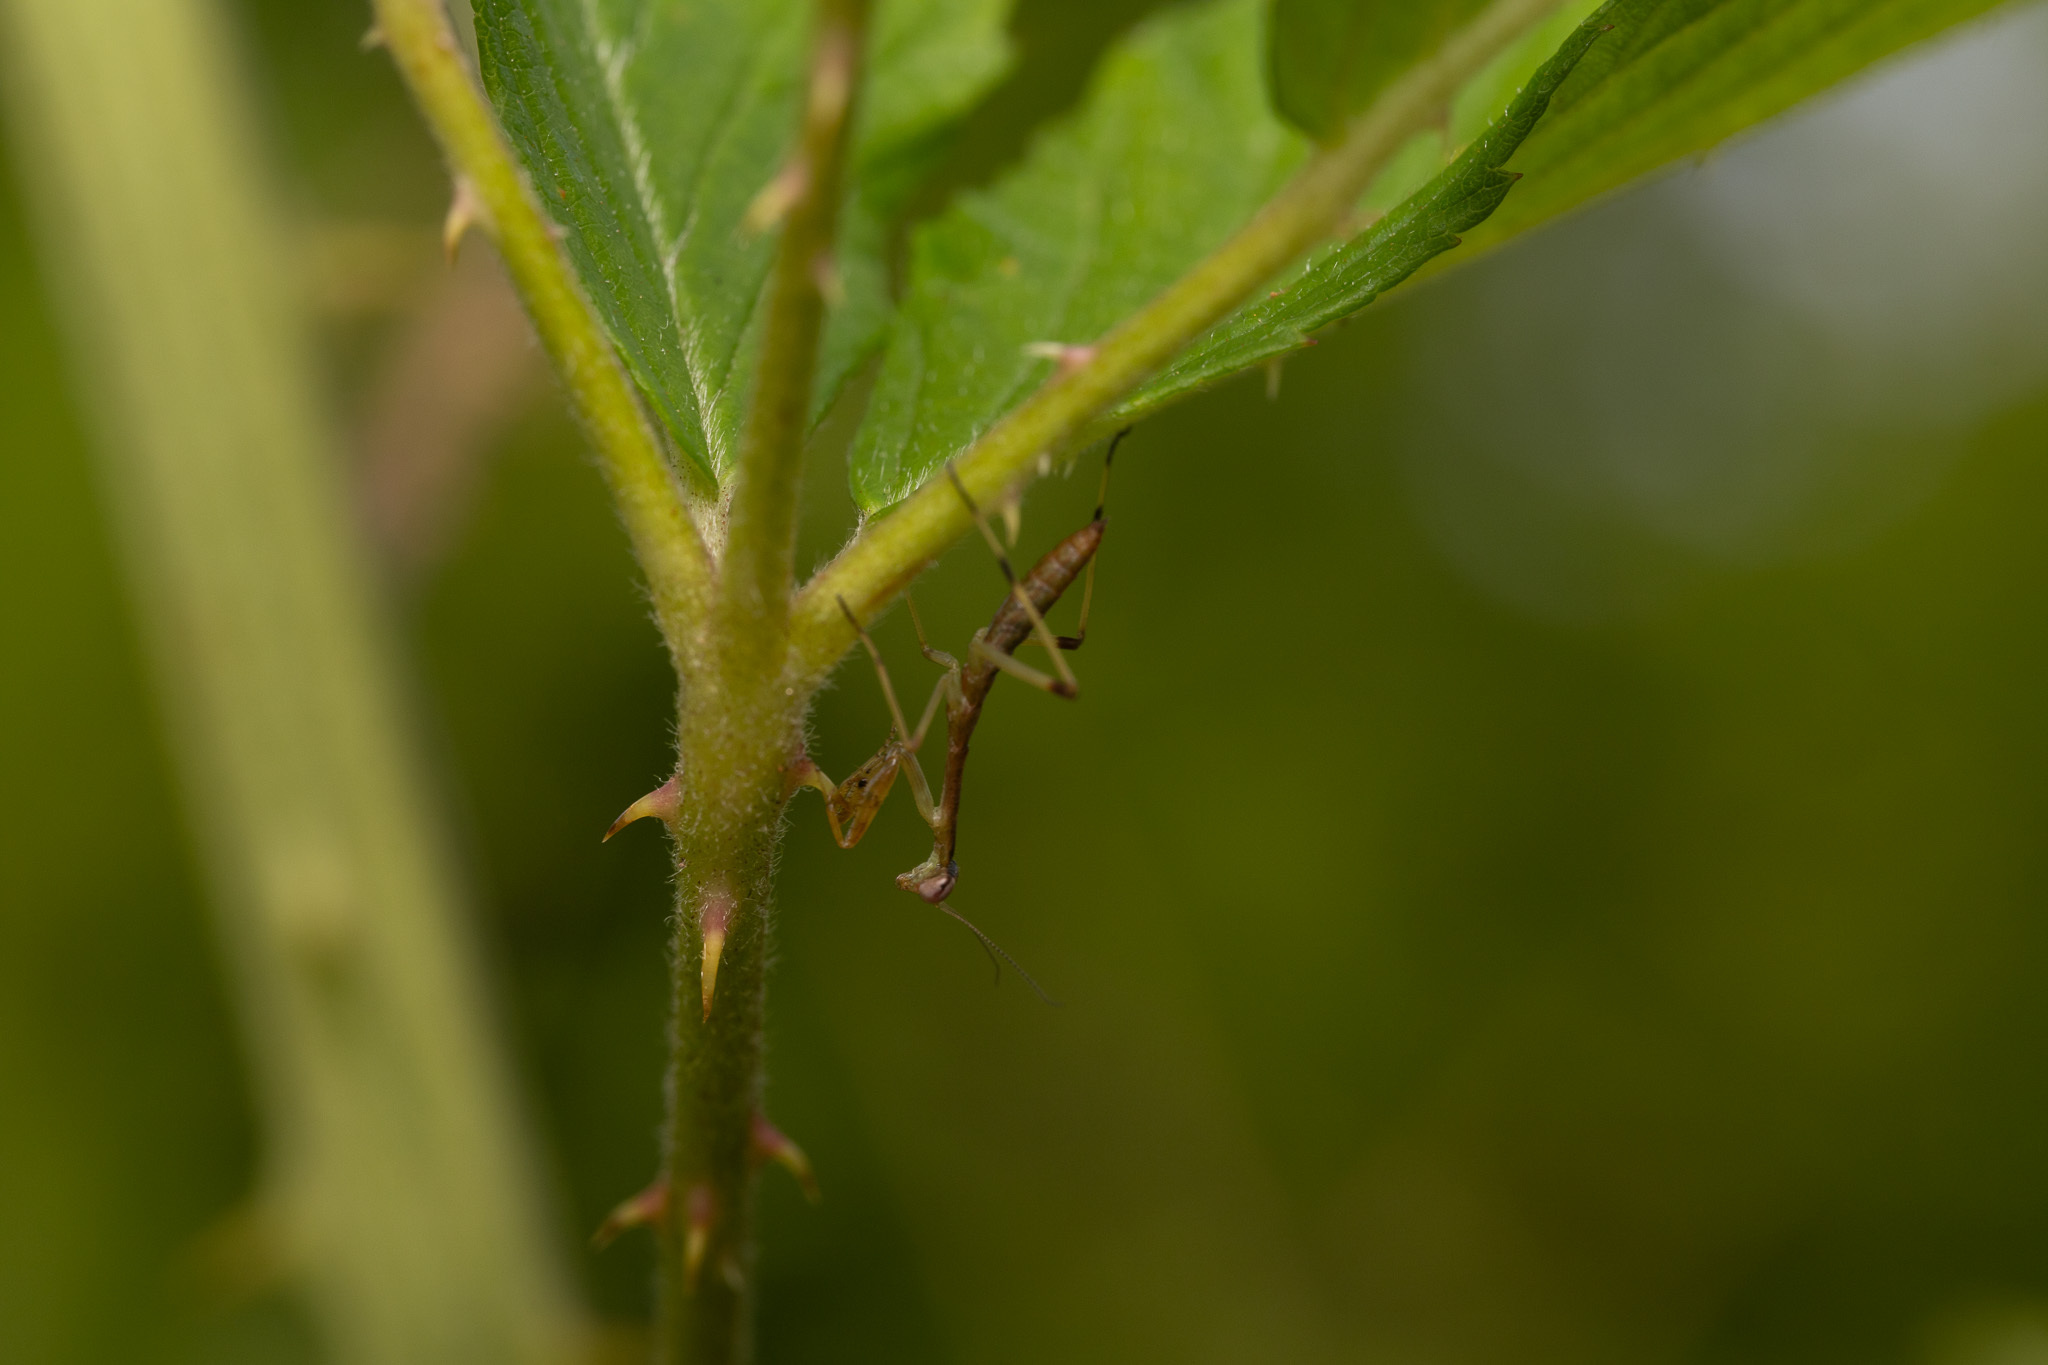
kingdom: Animalia
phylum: Arthropoda
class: Insecta
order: Mantodea
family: Mantidae
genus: Stagmomantis
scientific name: Stagmomantis carolina
